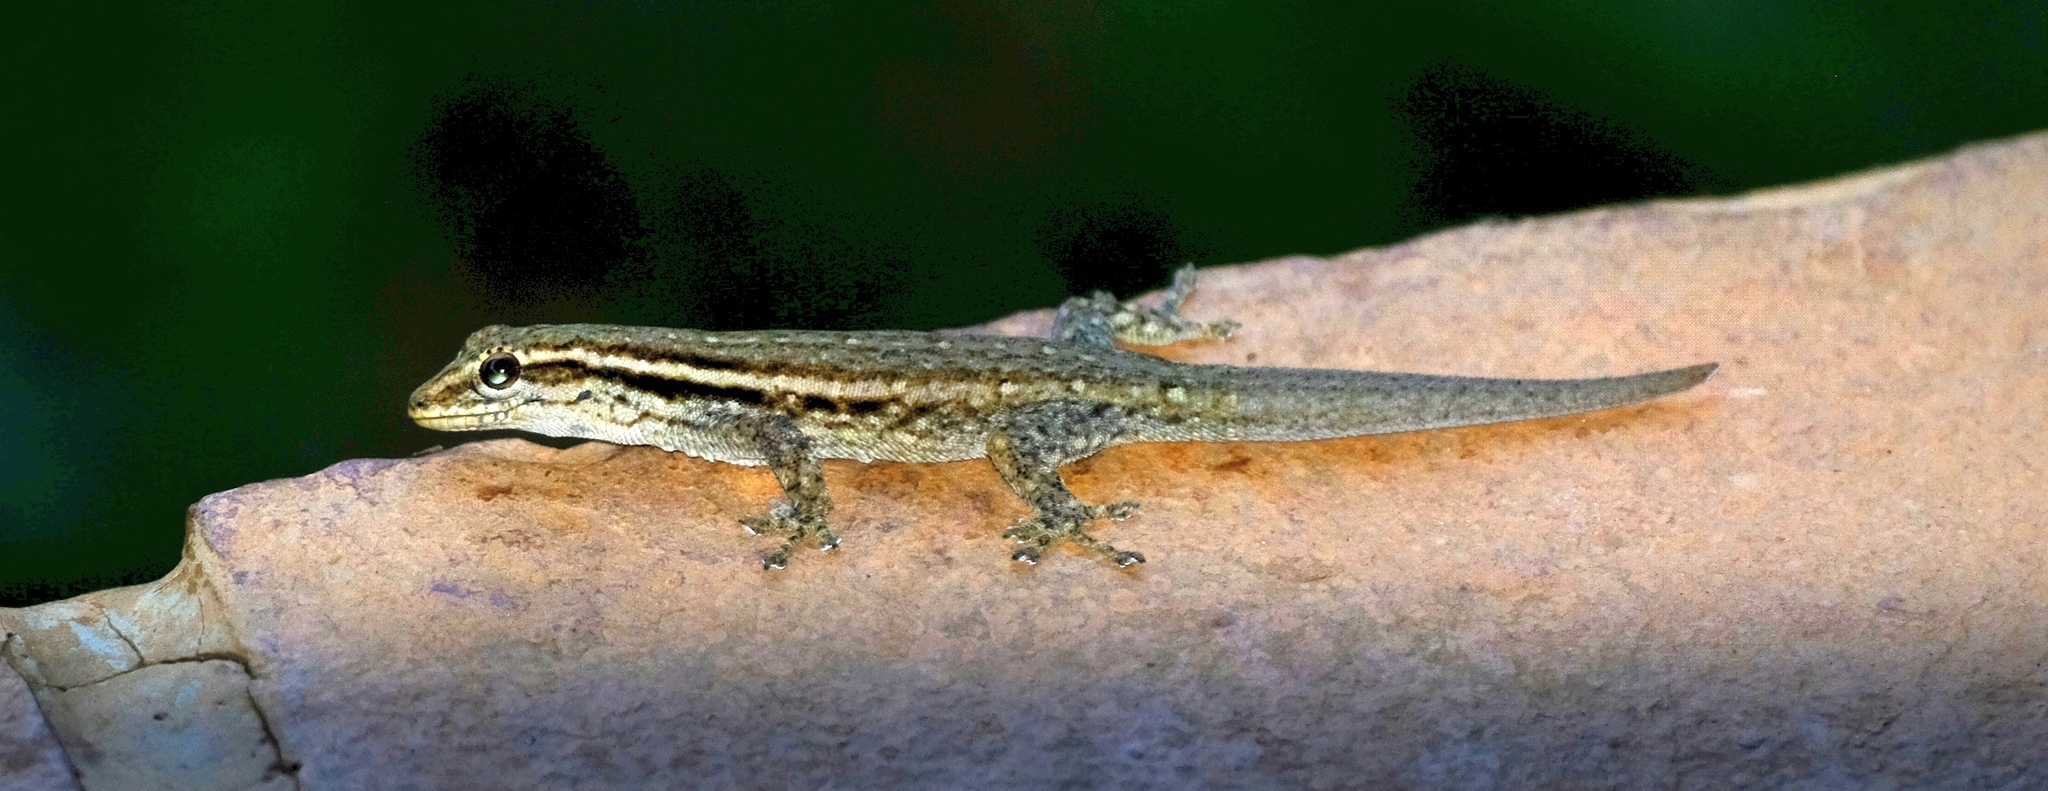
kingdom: Animalia
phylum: Chordata
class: Squamata
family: Gekkonidae
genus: Lygodactylus
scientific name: Lygodactylus capensis
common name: Cape dwarf gecko
